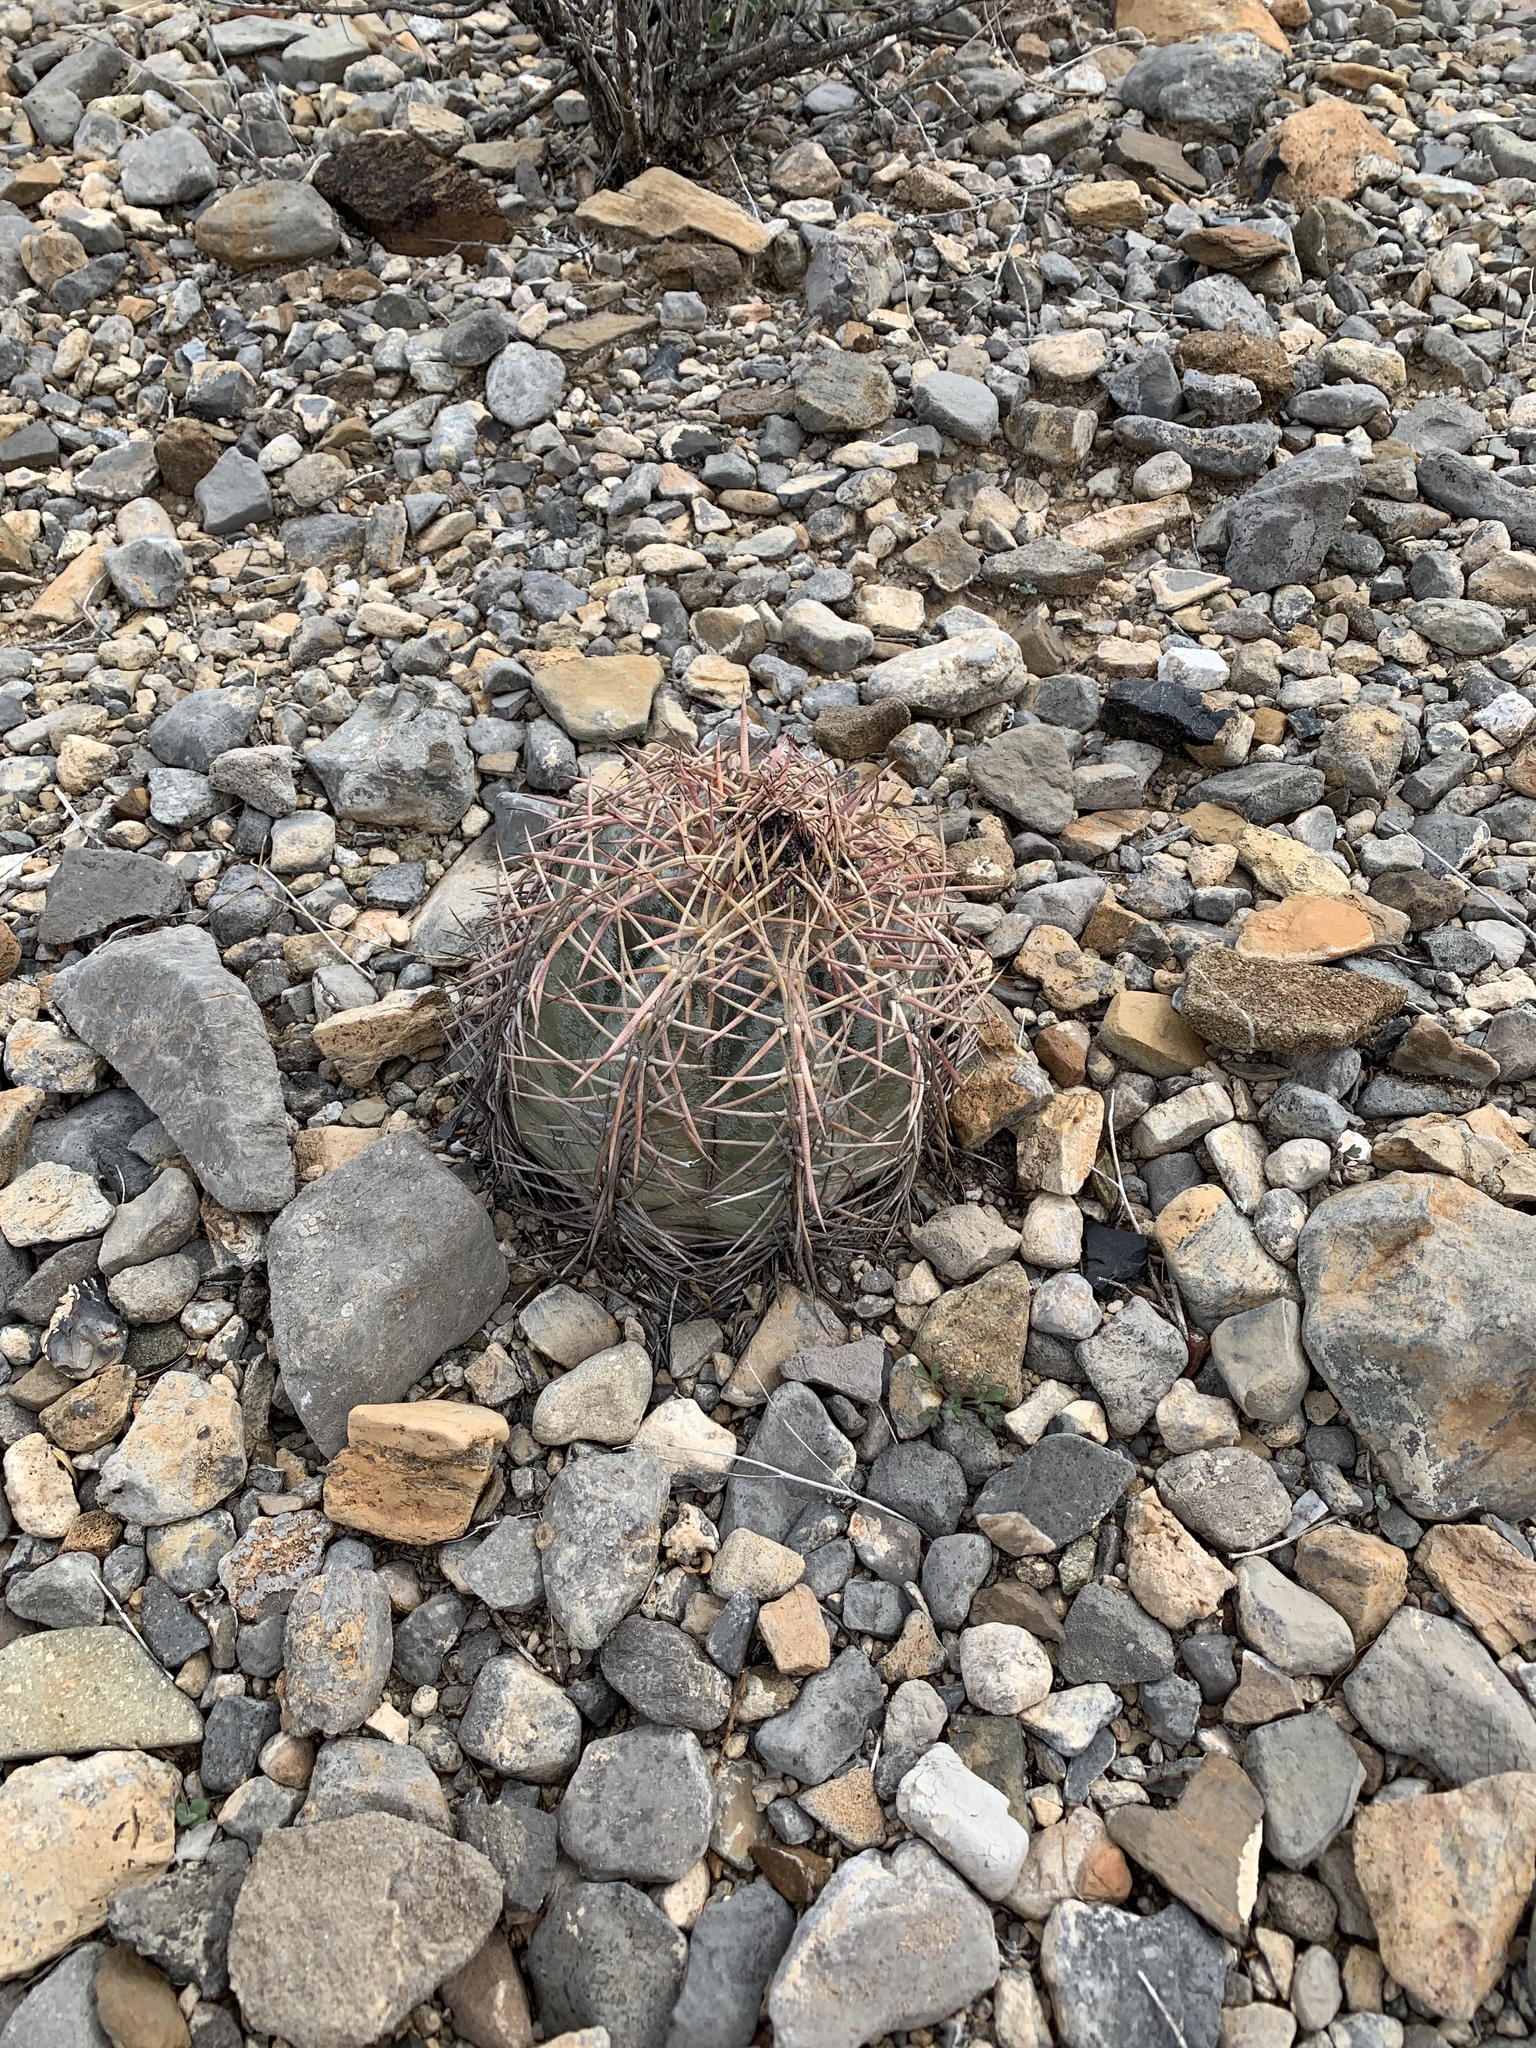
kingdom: Plantae
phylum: Tracheophyta
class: Magnoliopsida
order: Caryophyllales
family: Cactaceae
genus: Echinocactus
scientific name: Echinocactus horizonthalonius
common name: Devilshead
